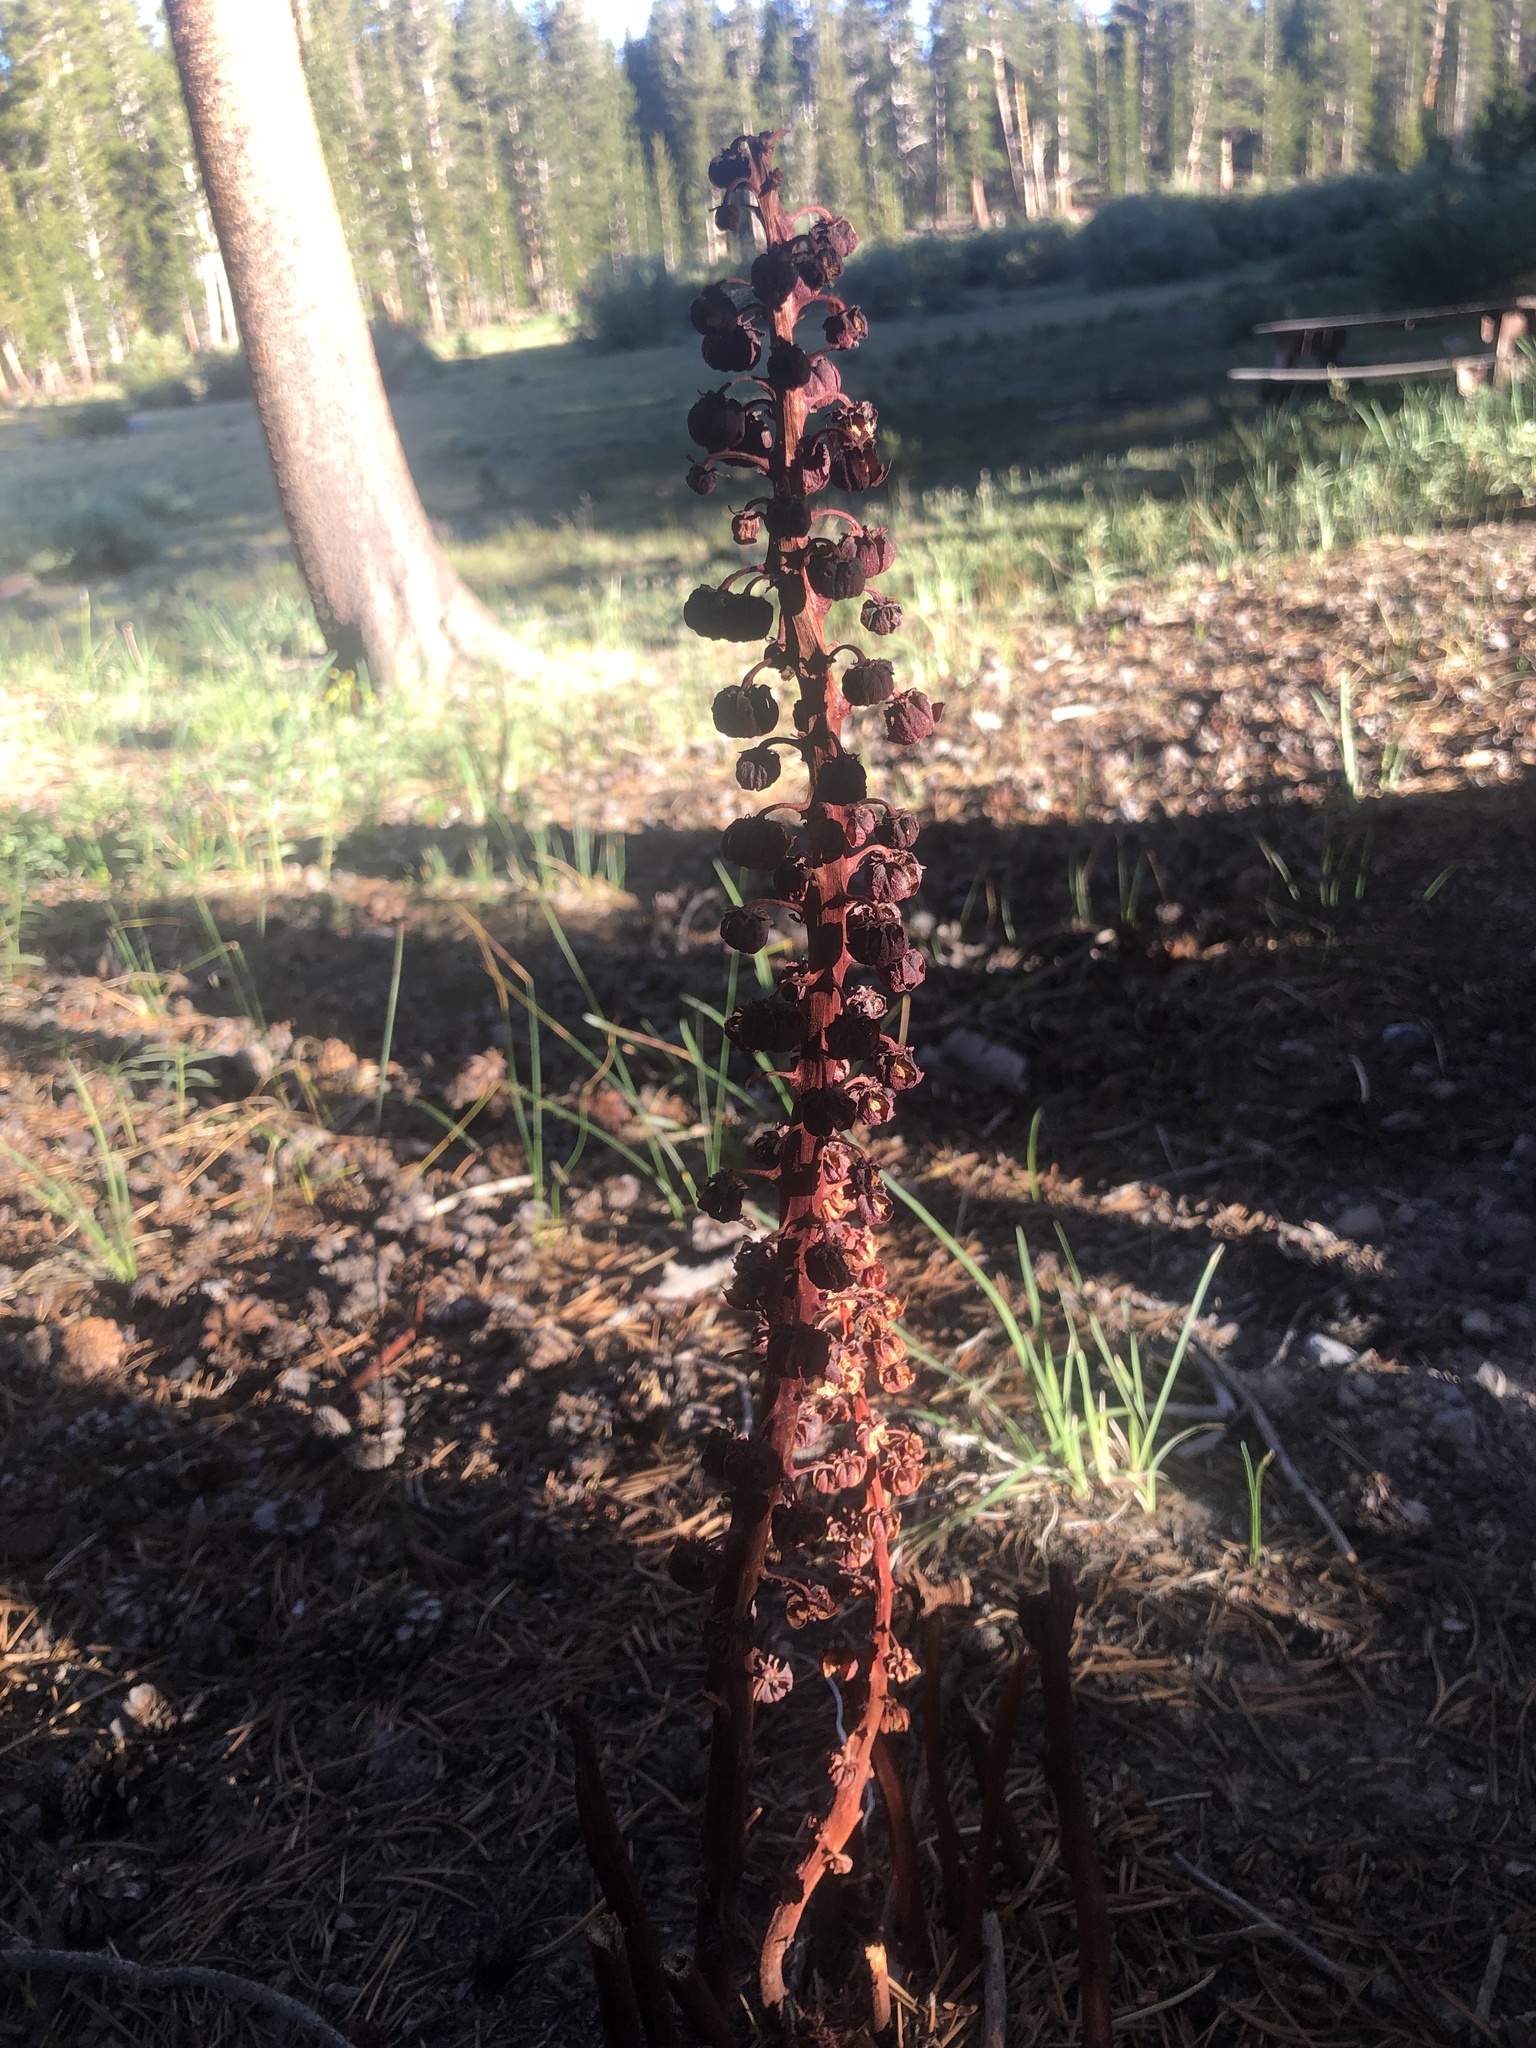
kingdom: Plantae
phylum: Tracheophyta
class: Magnoliopsida
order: Ericales
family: Ericaceae
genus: Pterospora
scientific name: Pterospora andromedea
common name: Giant bird's-nest
